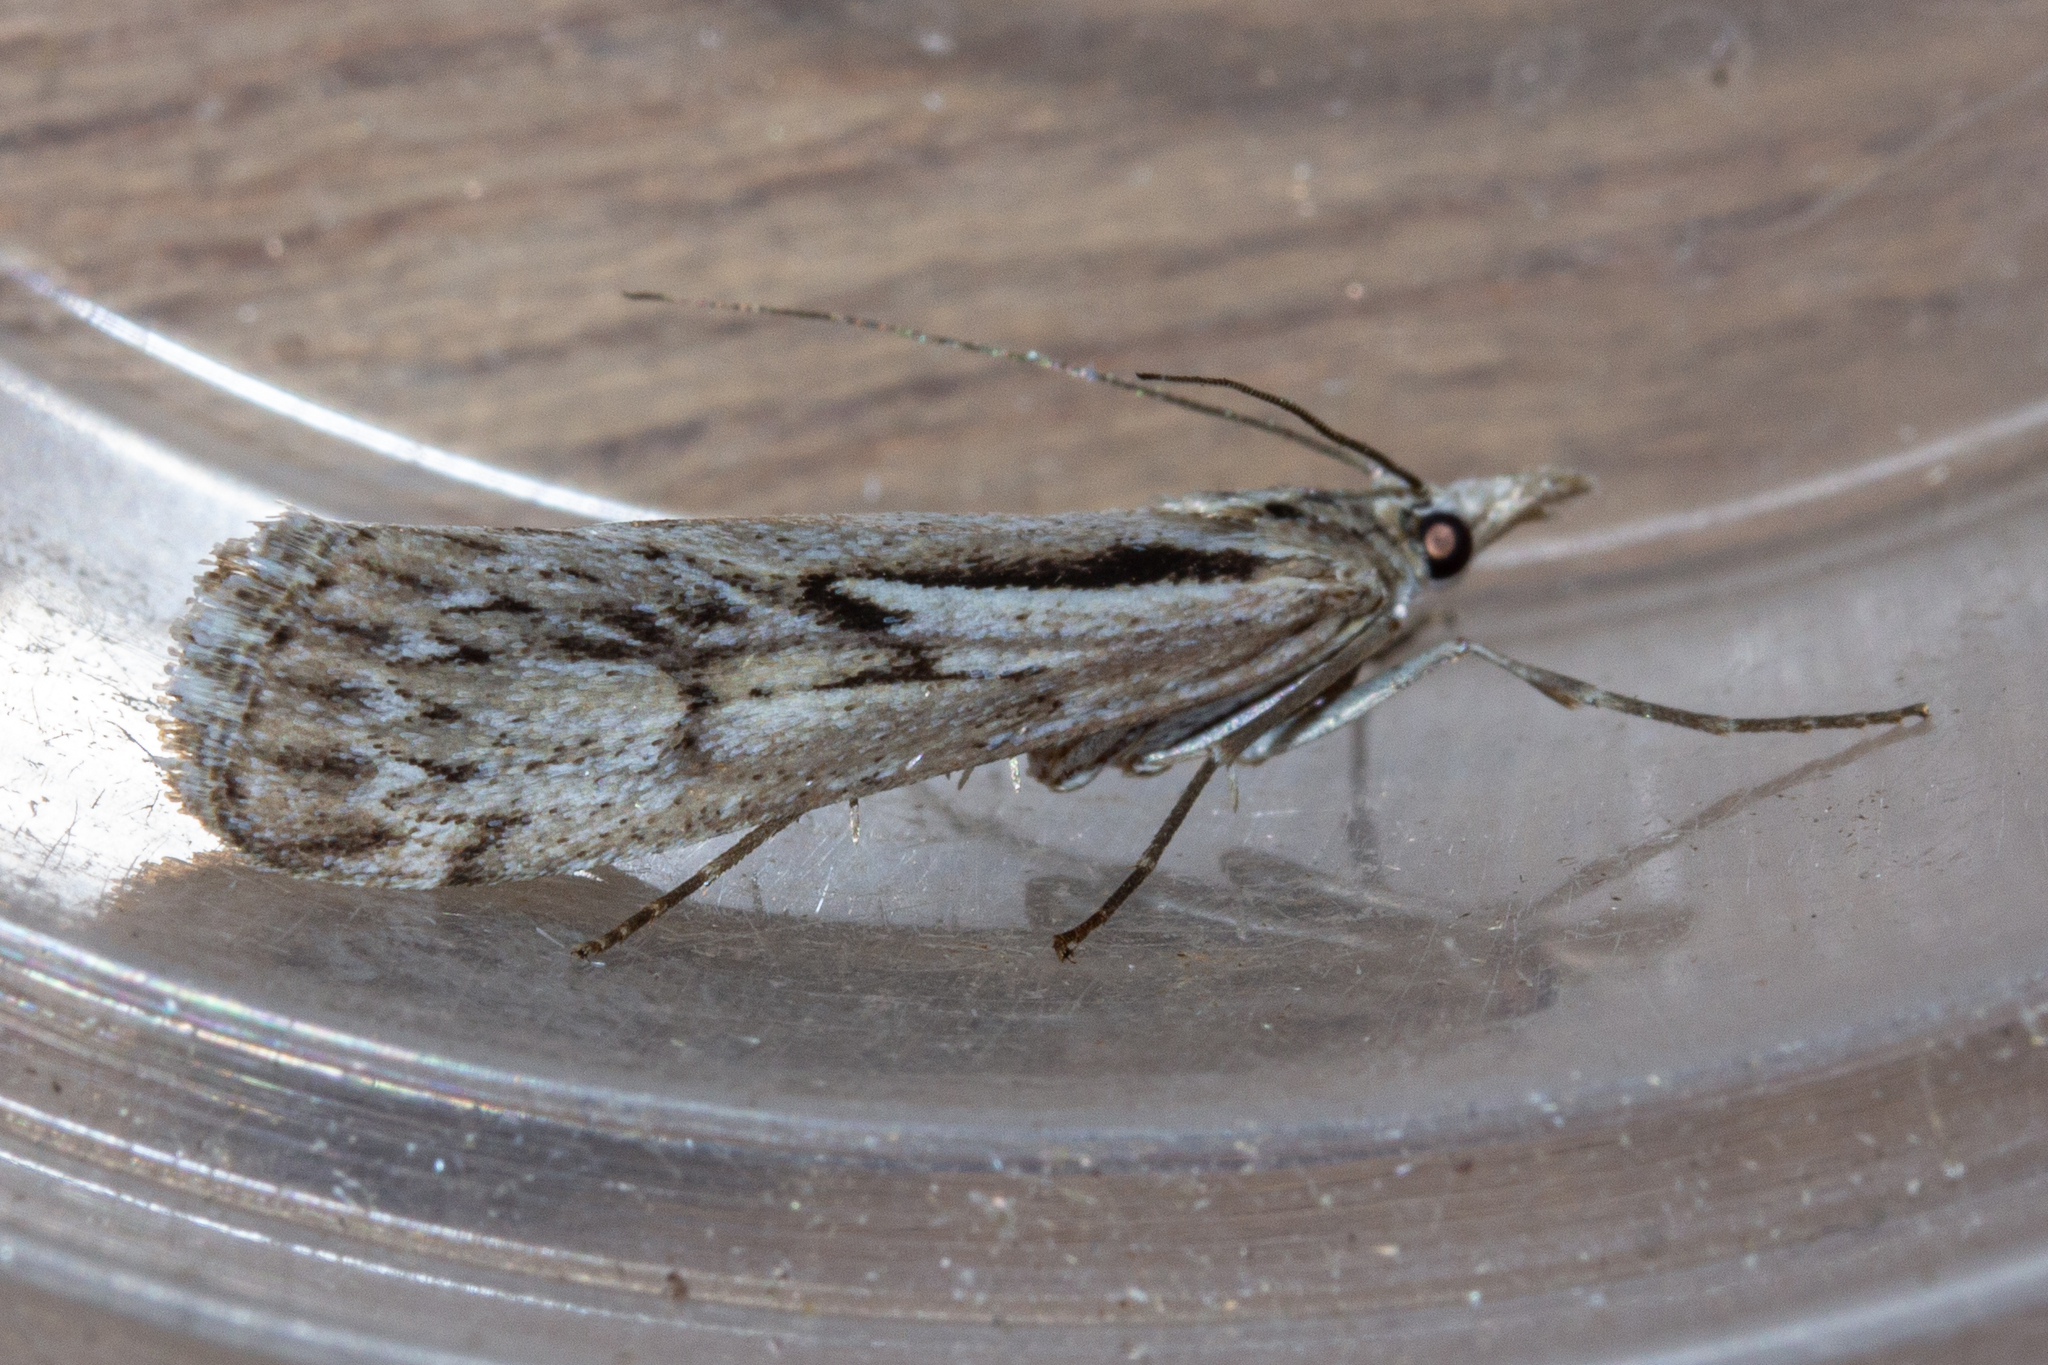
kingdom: Animalia
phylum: Arthropoda
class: Insecta
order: Lepidoptera
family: Crambidae
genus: Tawhitia
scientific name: Tawhitia pentadactylus
